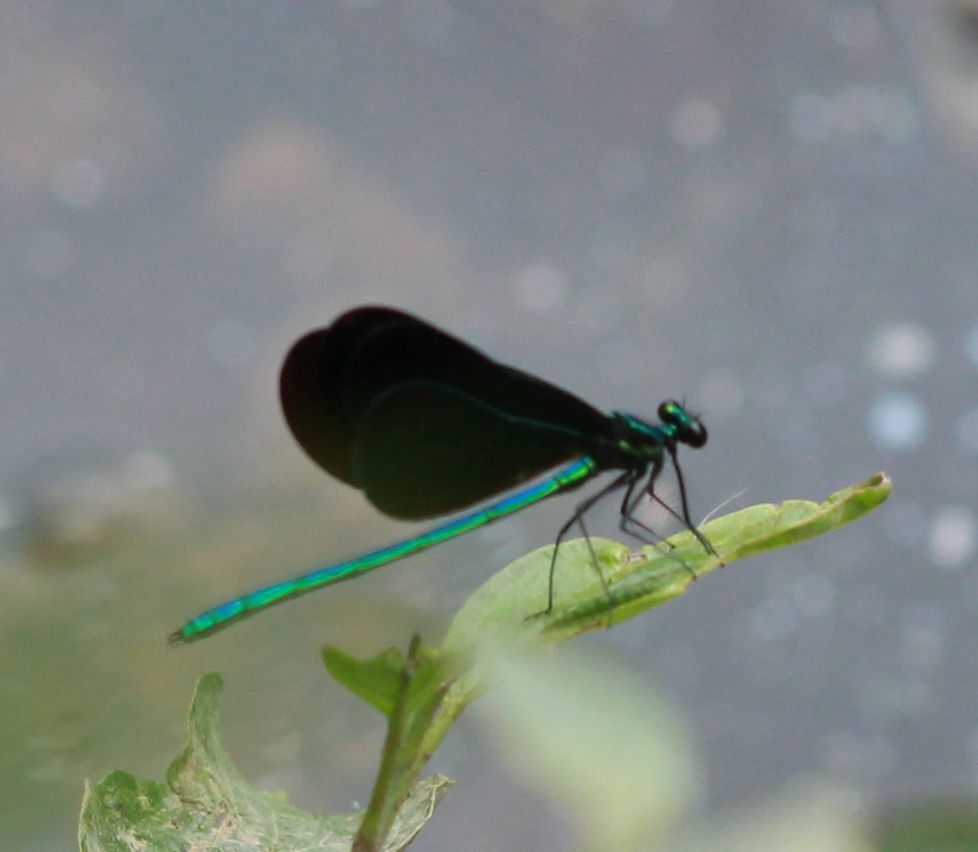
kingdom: Animalia
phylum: Arthropoda
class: Insecta
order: Odonata
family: Calopterygidae
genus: Calopteryx
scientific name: Calopteryx maculata
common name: Ebony jewelwing
